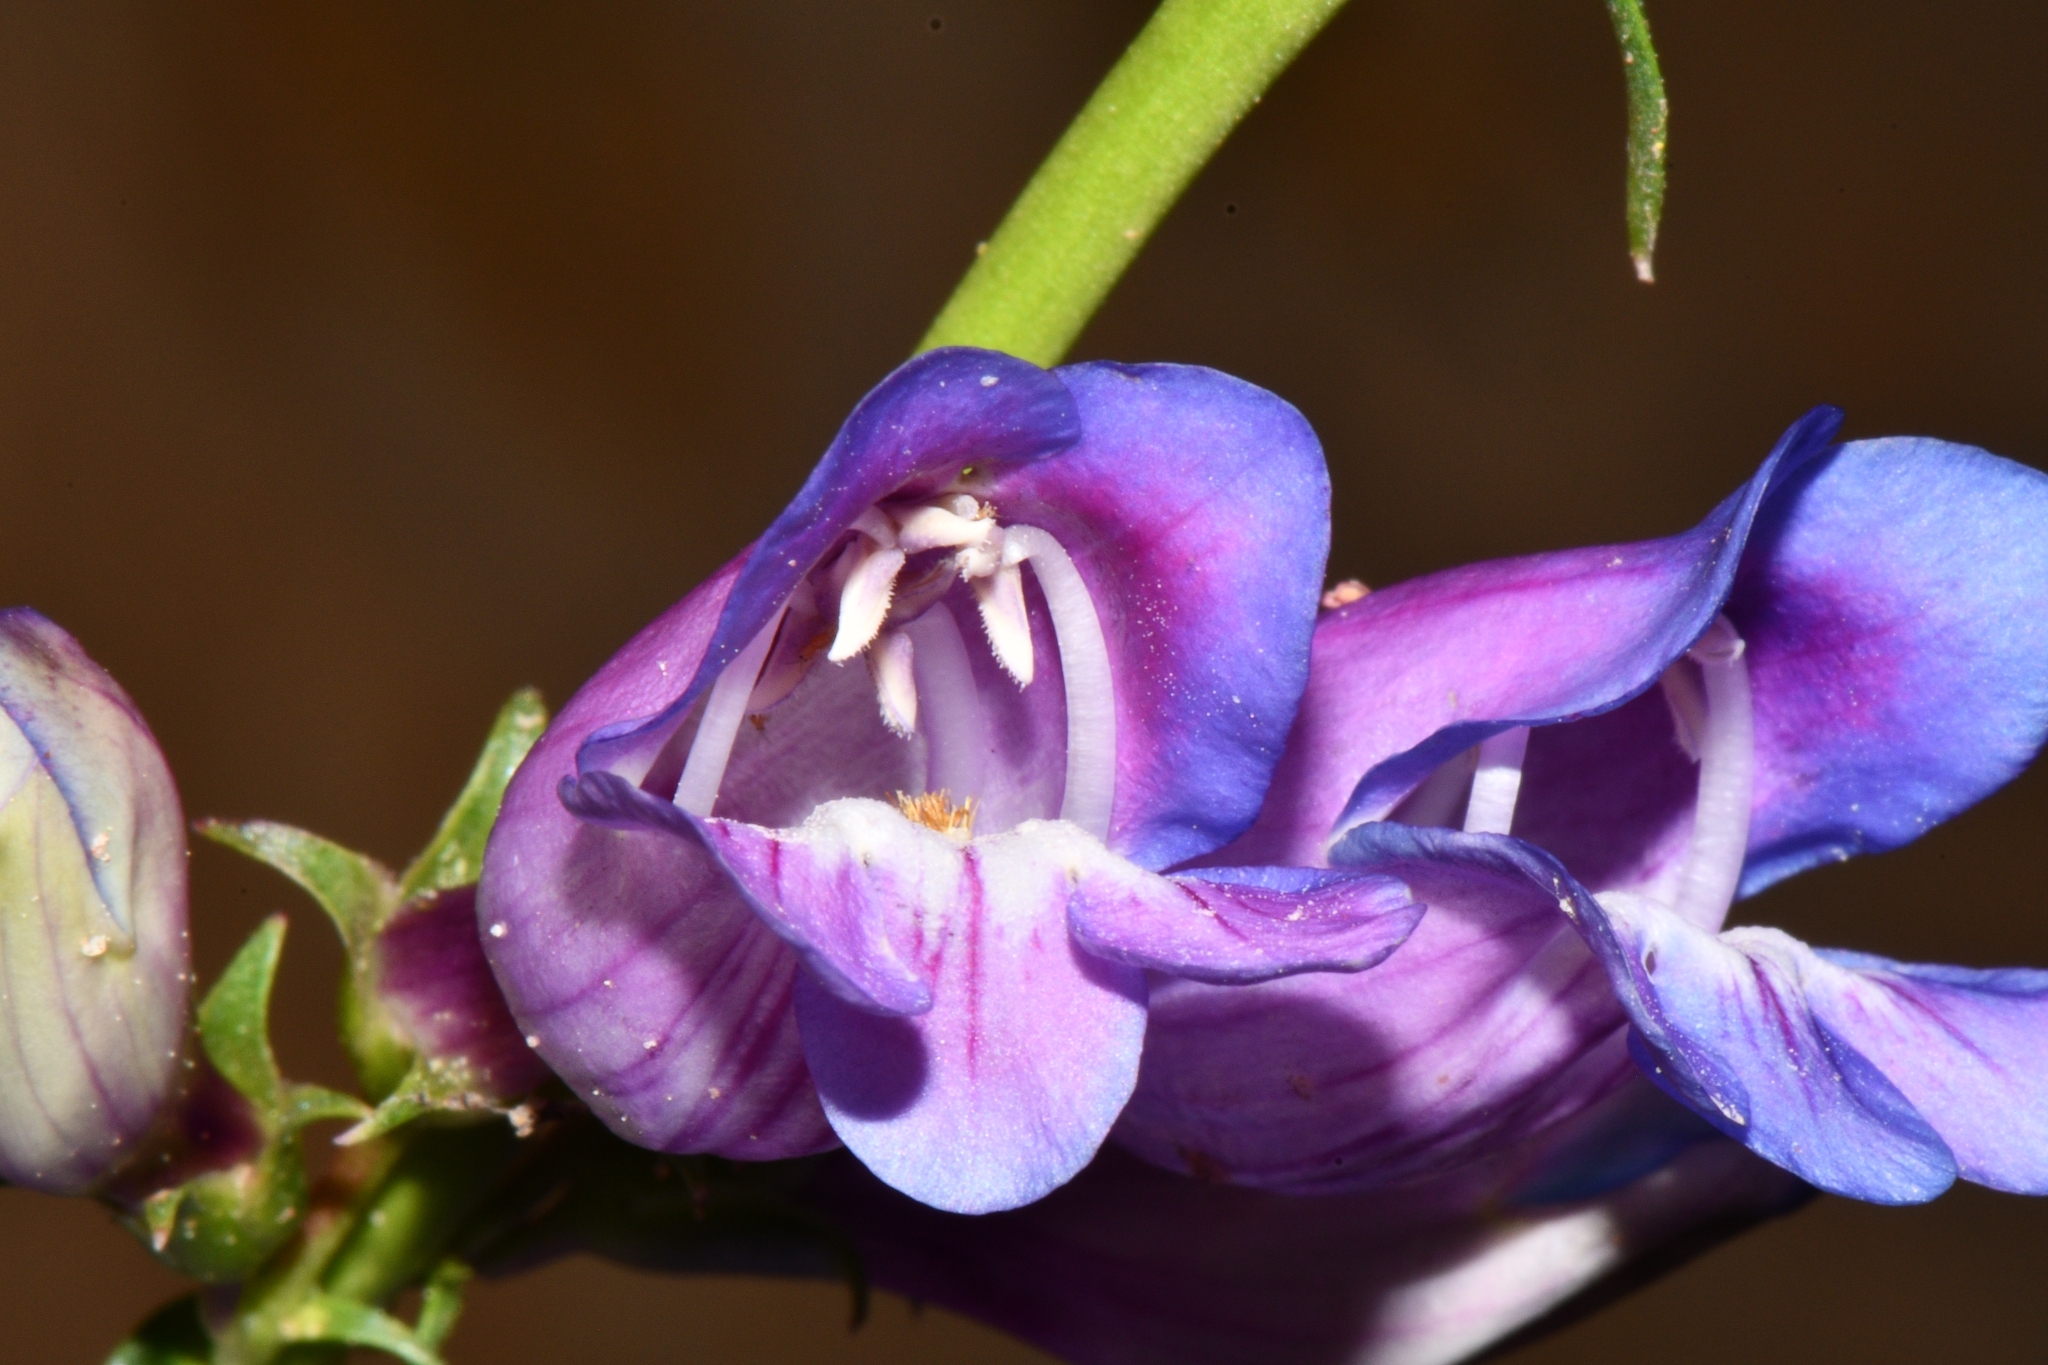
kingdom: Plantae
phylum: Tracheophyta
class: Magnoliopsida
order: Lamiales
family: Plantaginaceae
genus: Penstemon
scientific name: Penstemon laevis
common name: Smooth penstemon
